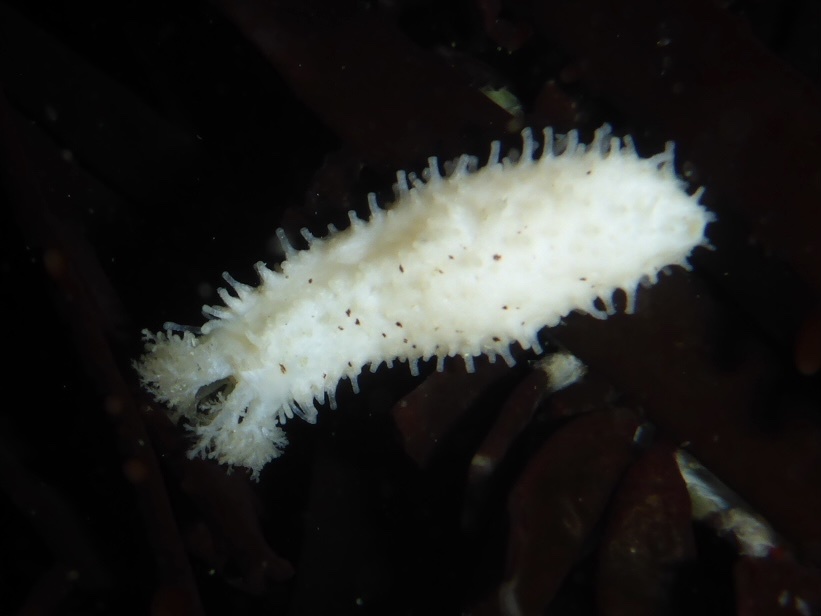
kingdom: Animalia
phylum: Echinodermata
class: Holothuroidea
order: Dendrochirotida
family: Sclerodactylidae
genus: Eupentacta
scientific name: Eupentacta quinquesemita
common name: Pentamerous sea cucumber
